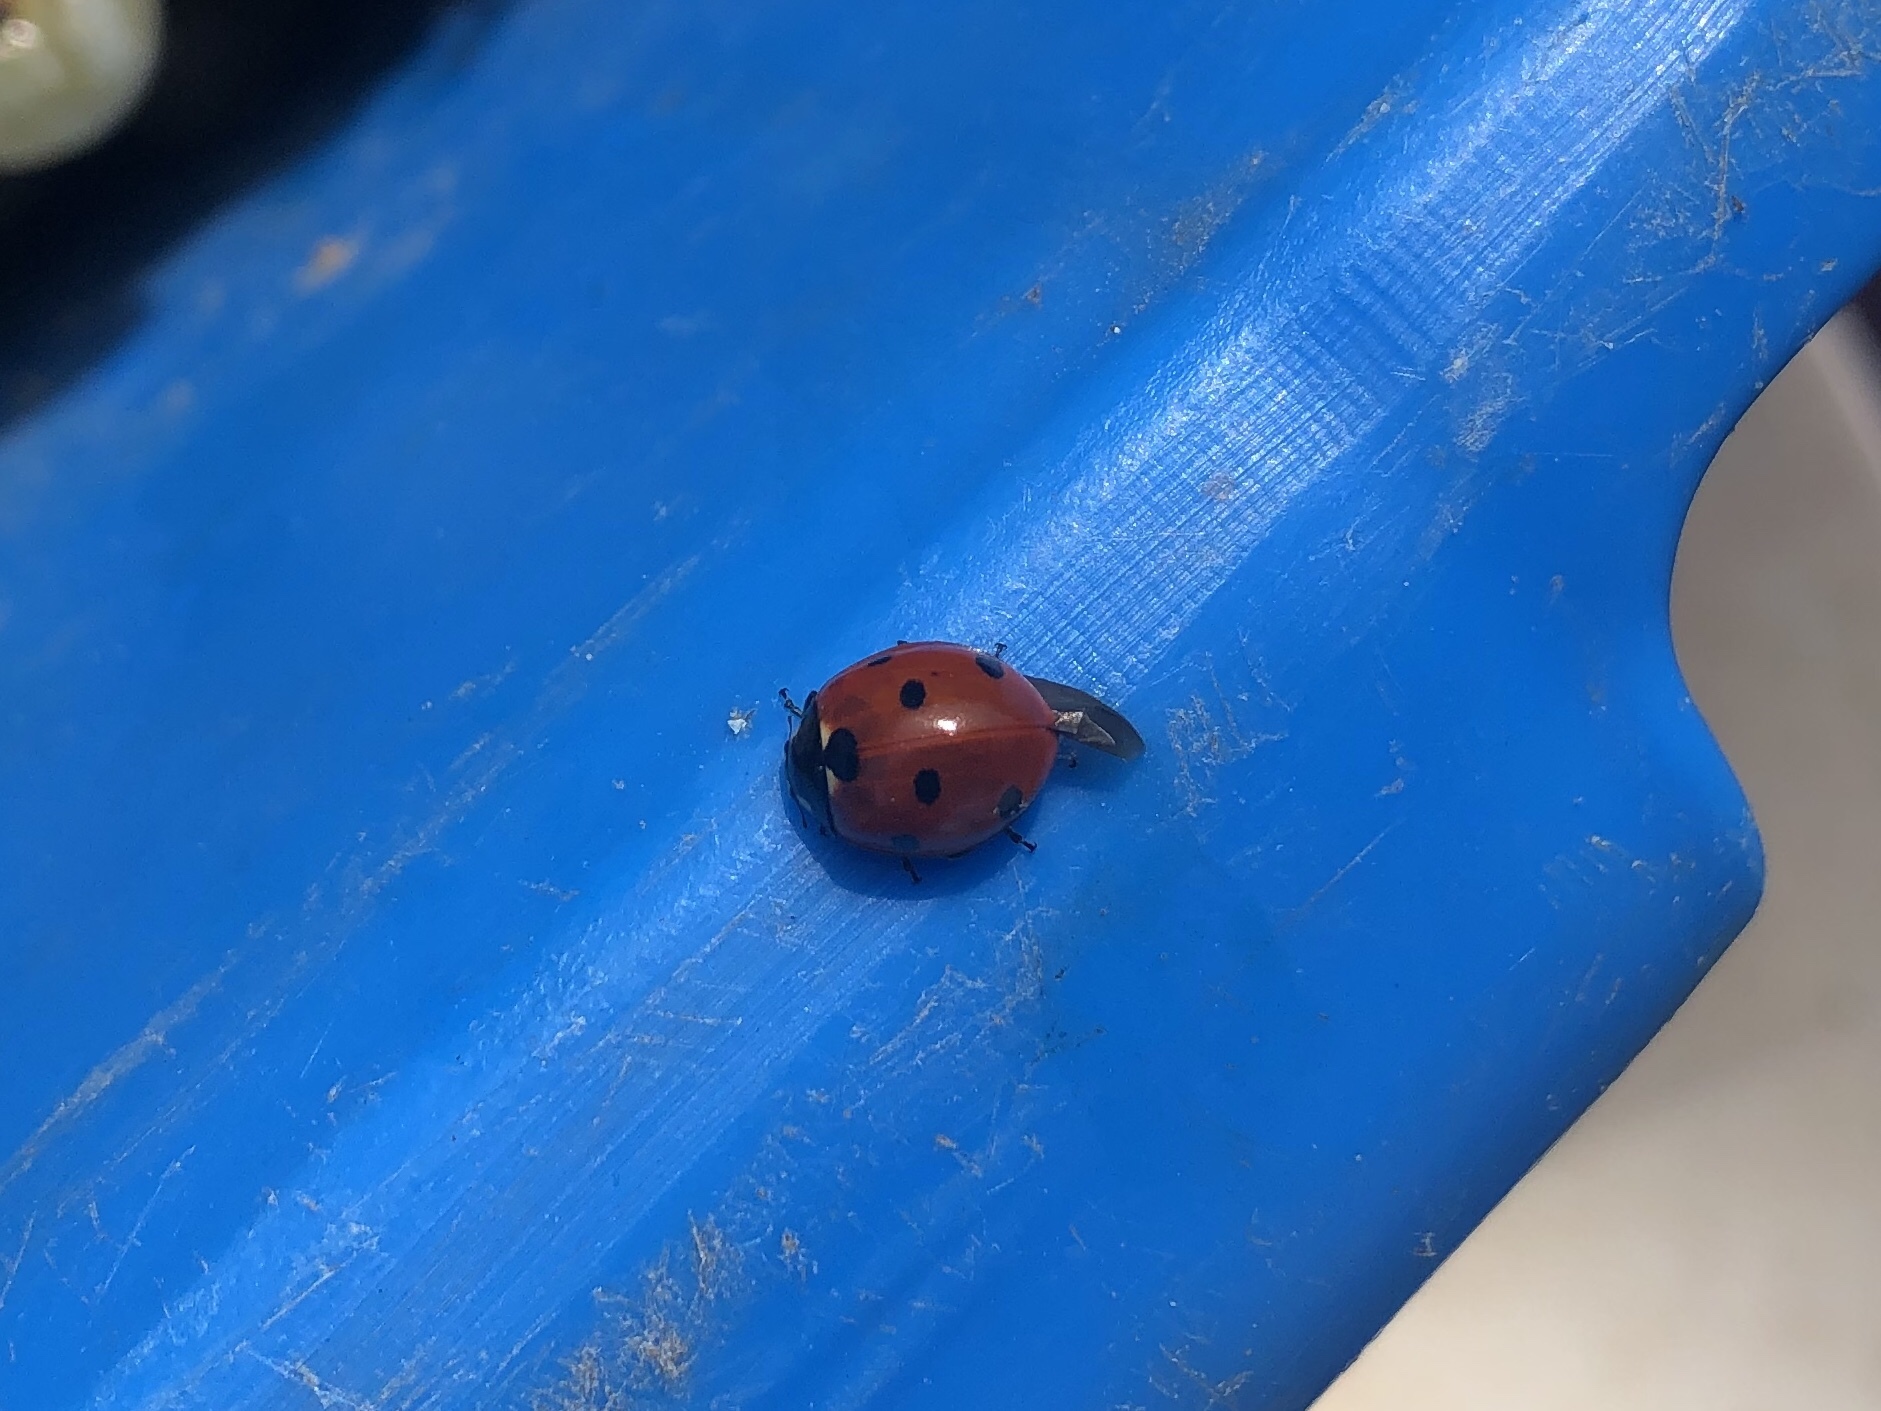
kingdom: Animalia
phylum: Arthropoda
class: Insecta
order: Coleoptera
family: Coccinellidae
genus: Coccinella
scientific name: Coccinella septempunctata
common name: Sevenspotted lady beetle
